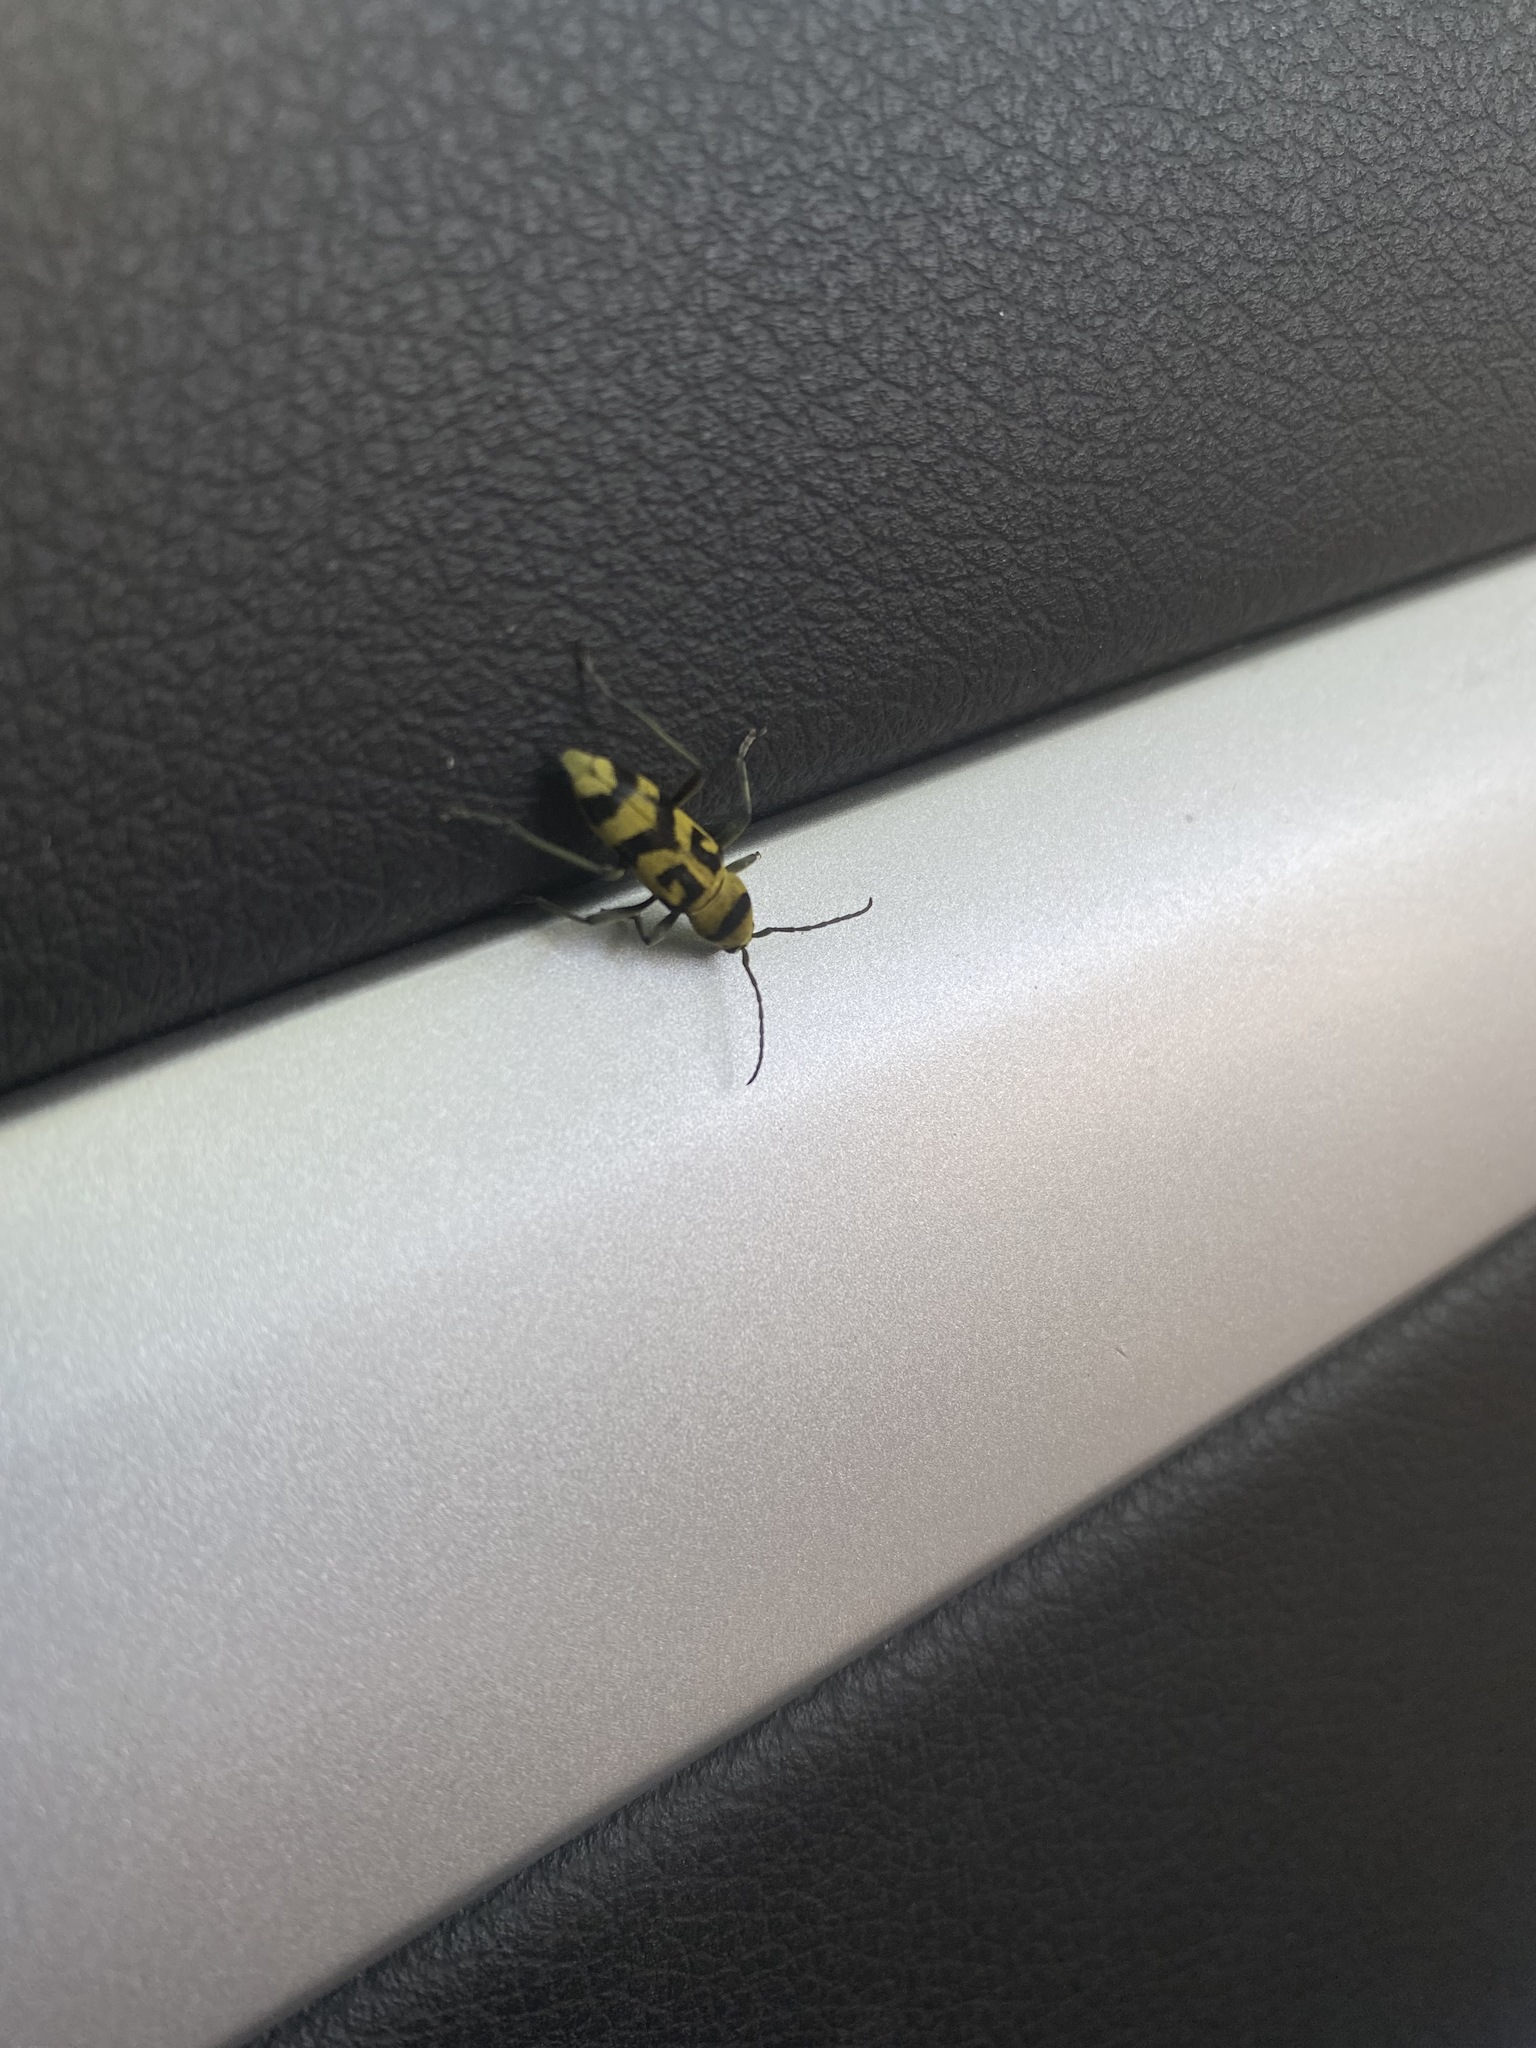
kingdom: Animalia
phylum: Arthropoda
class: Insecta
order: Coleoptera
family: Cerambycidae
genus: Chlorophorus
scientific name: Chlorophorus varius
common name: Grape wood borer
